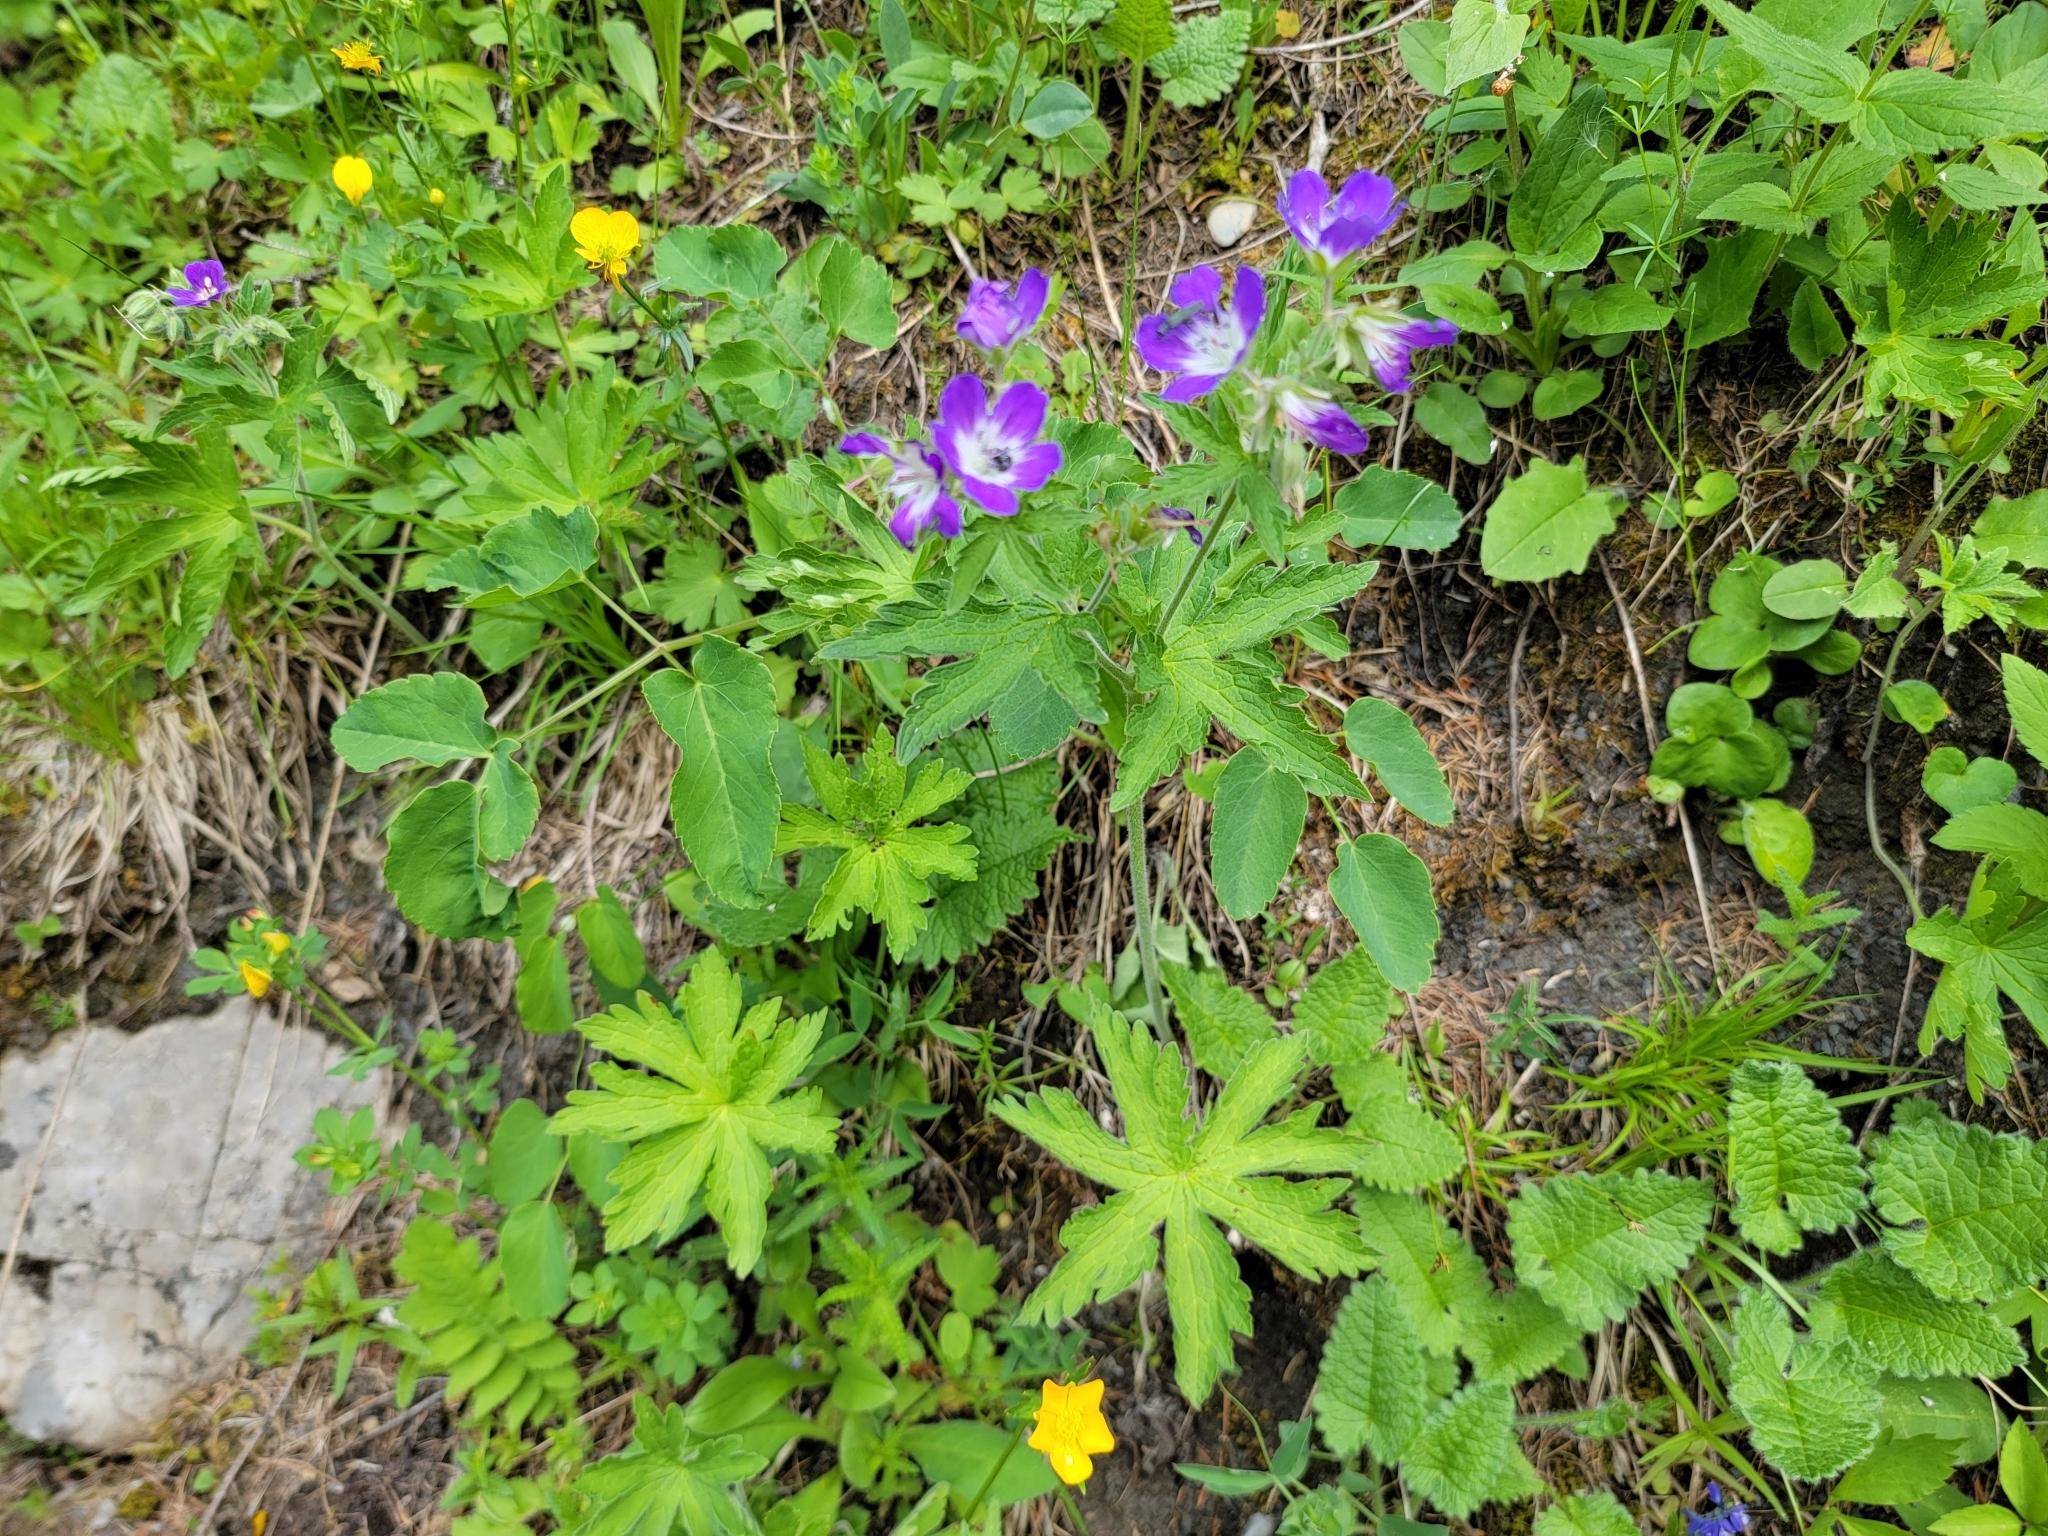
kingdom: Plantae
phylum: Tracheophyta
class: Magnoliopsida
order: Geraniales
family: Geraniaceae
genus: Geranium
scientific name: Geranium sylvaticum
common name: Wood crane's-bill
